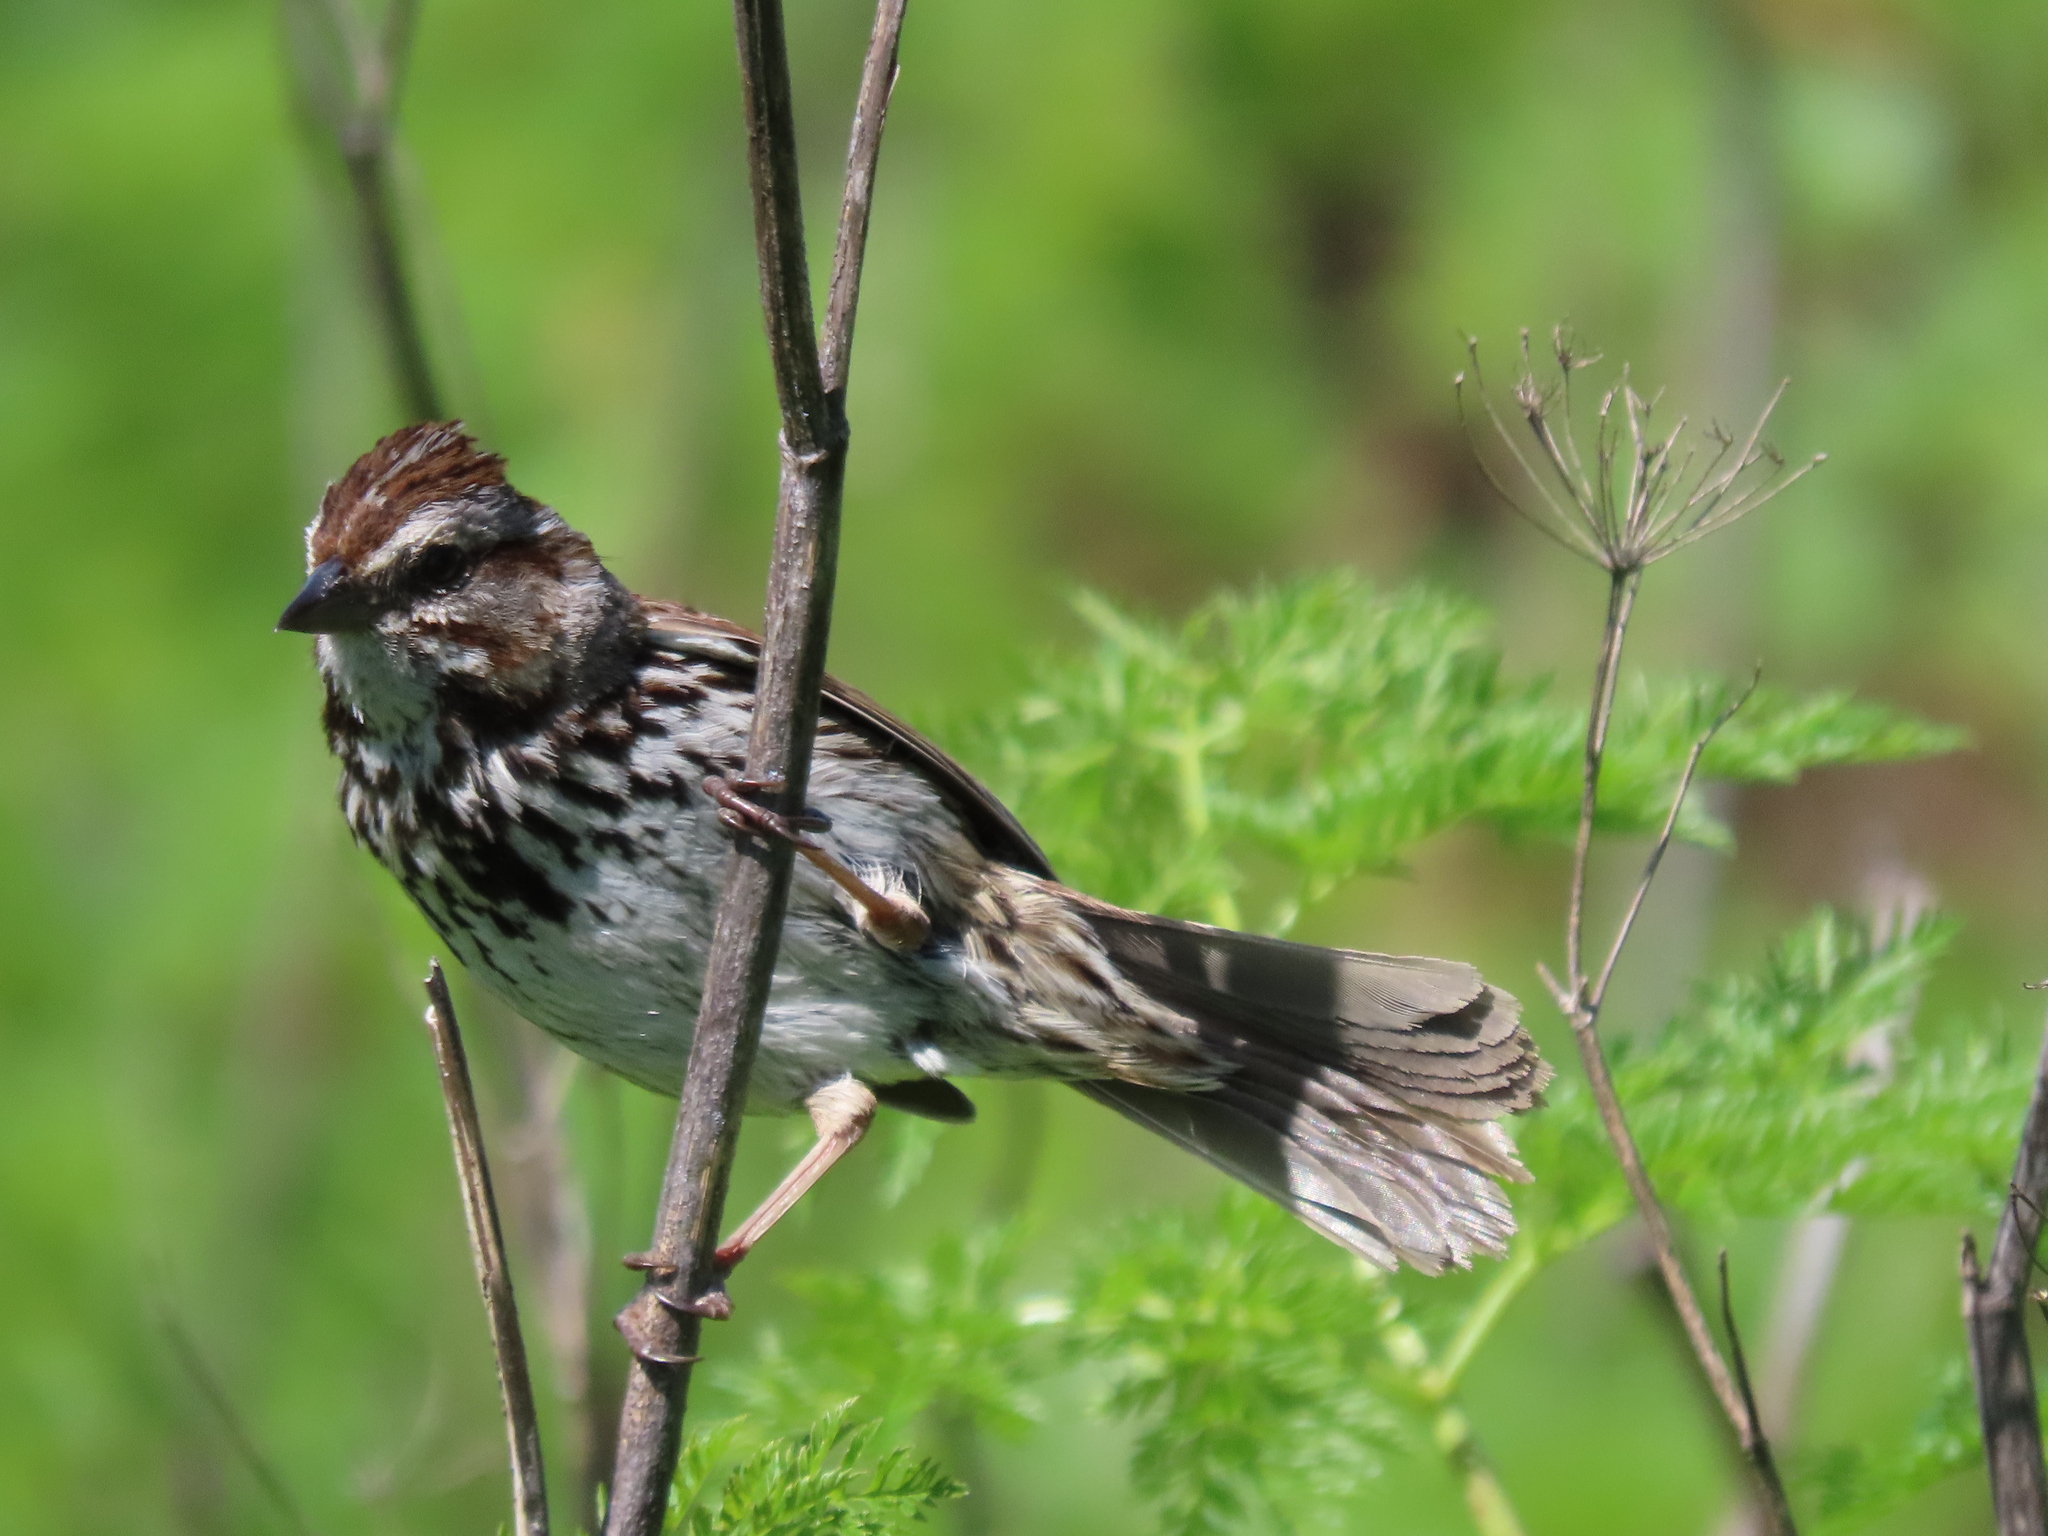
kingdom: Animalia
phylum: Chordata
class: Aves
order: Passeriformes
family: Passerellidae
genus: Melospiza
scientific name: Melospiza melodia
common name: Song sparrow
